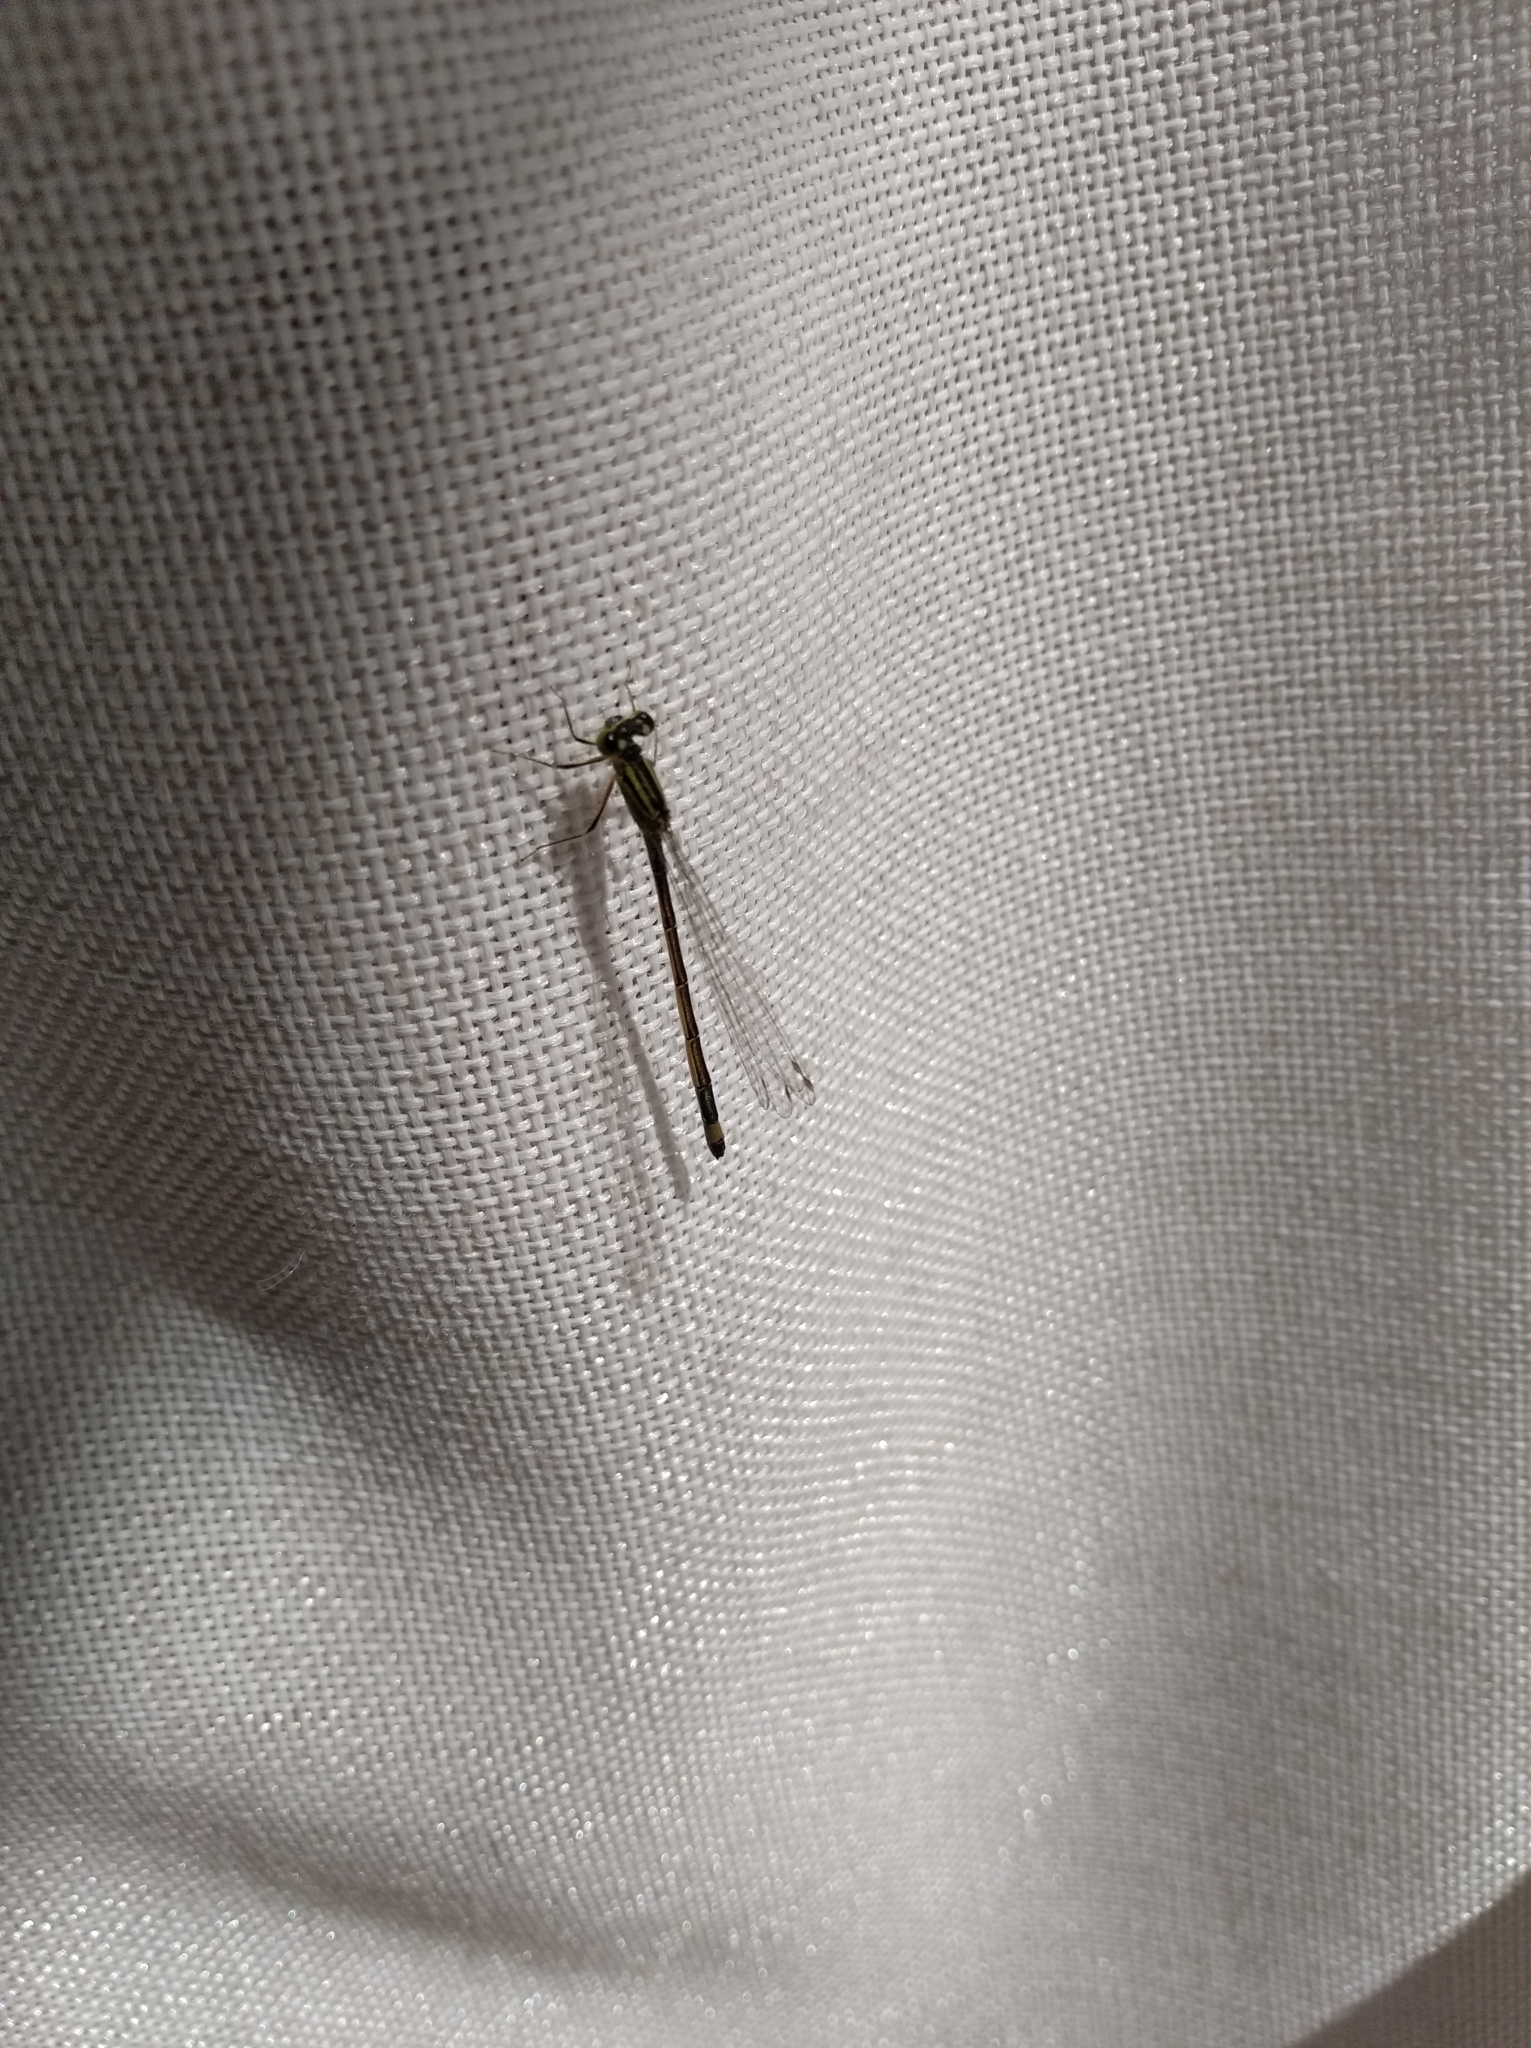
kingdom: Animalia
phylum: Arthropoda
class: Insecta
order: Odonata
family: Coenagrionidae
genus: Ischnura
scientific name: Ischnura elegans
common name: Blue-tailed damselfly
